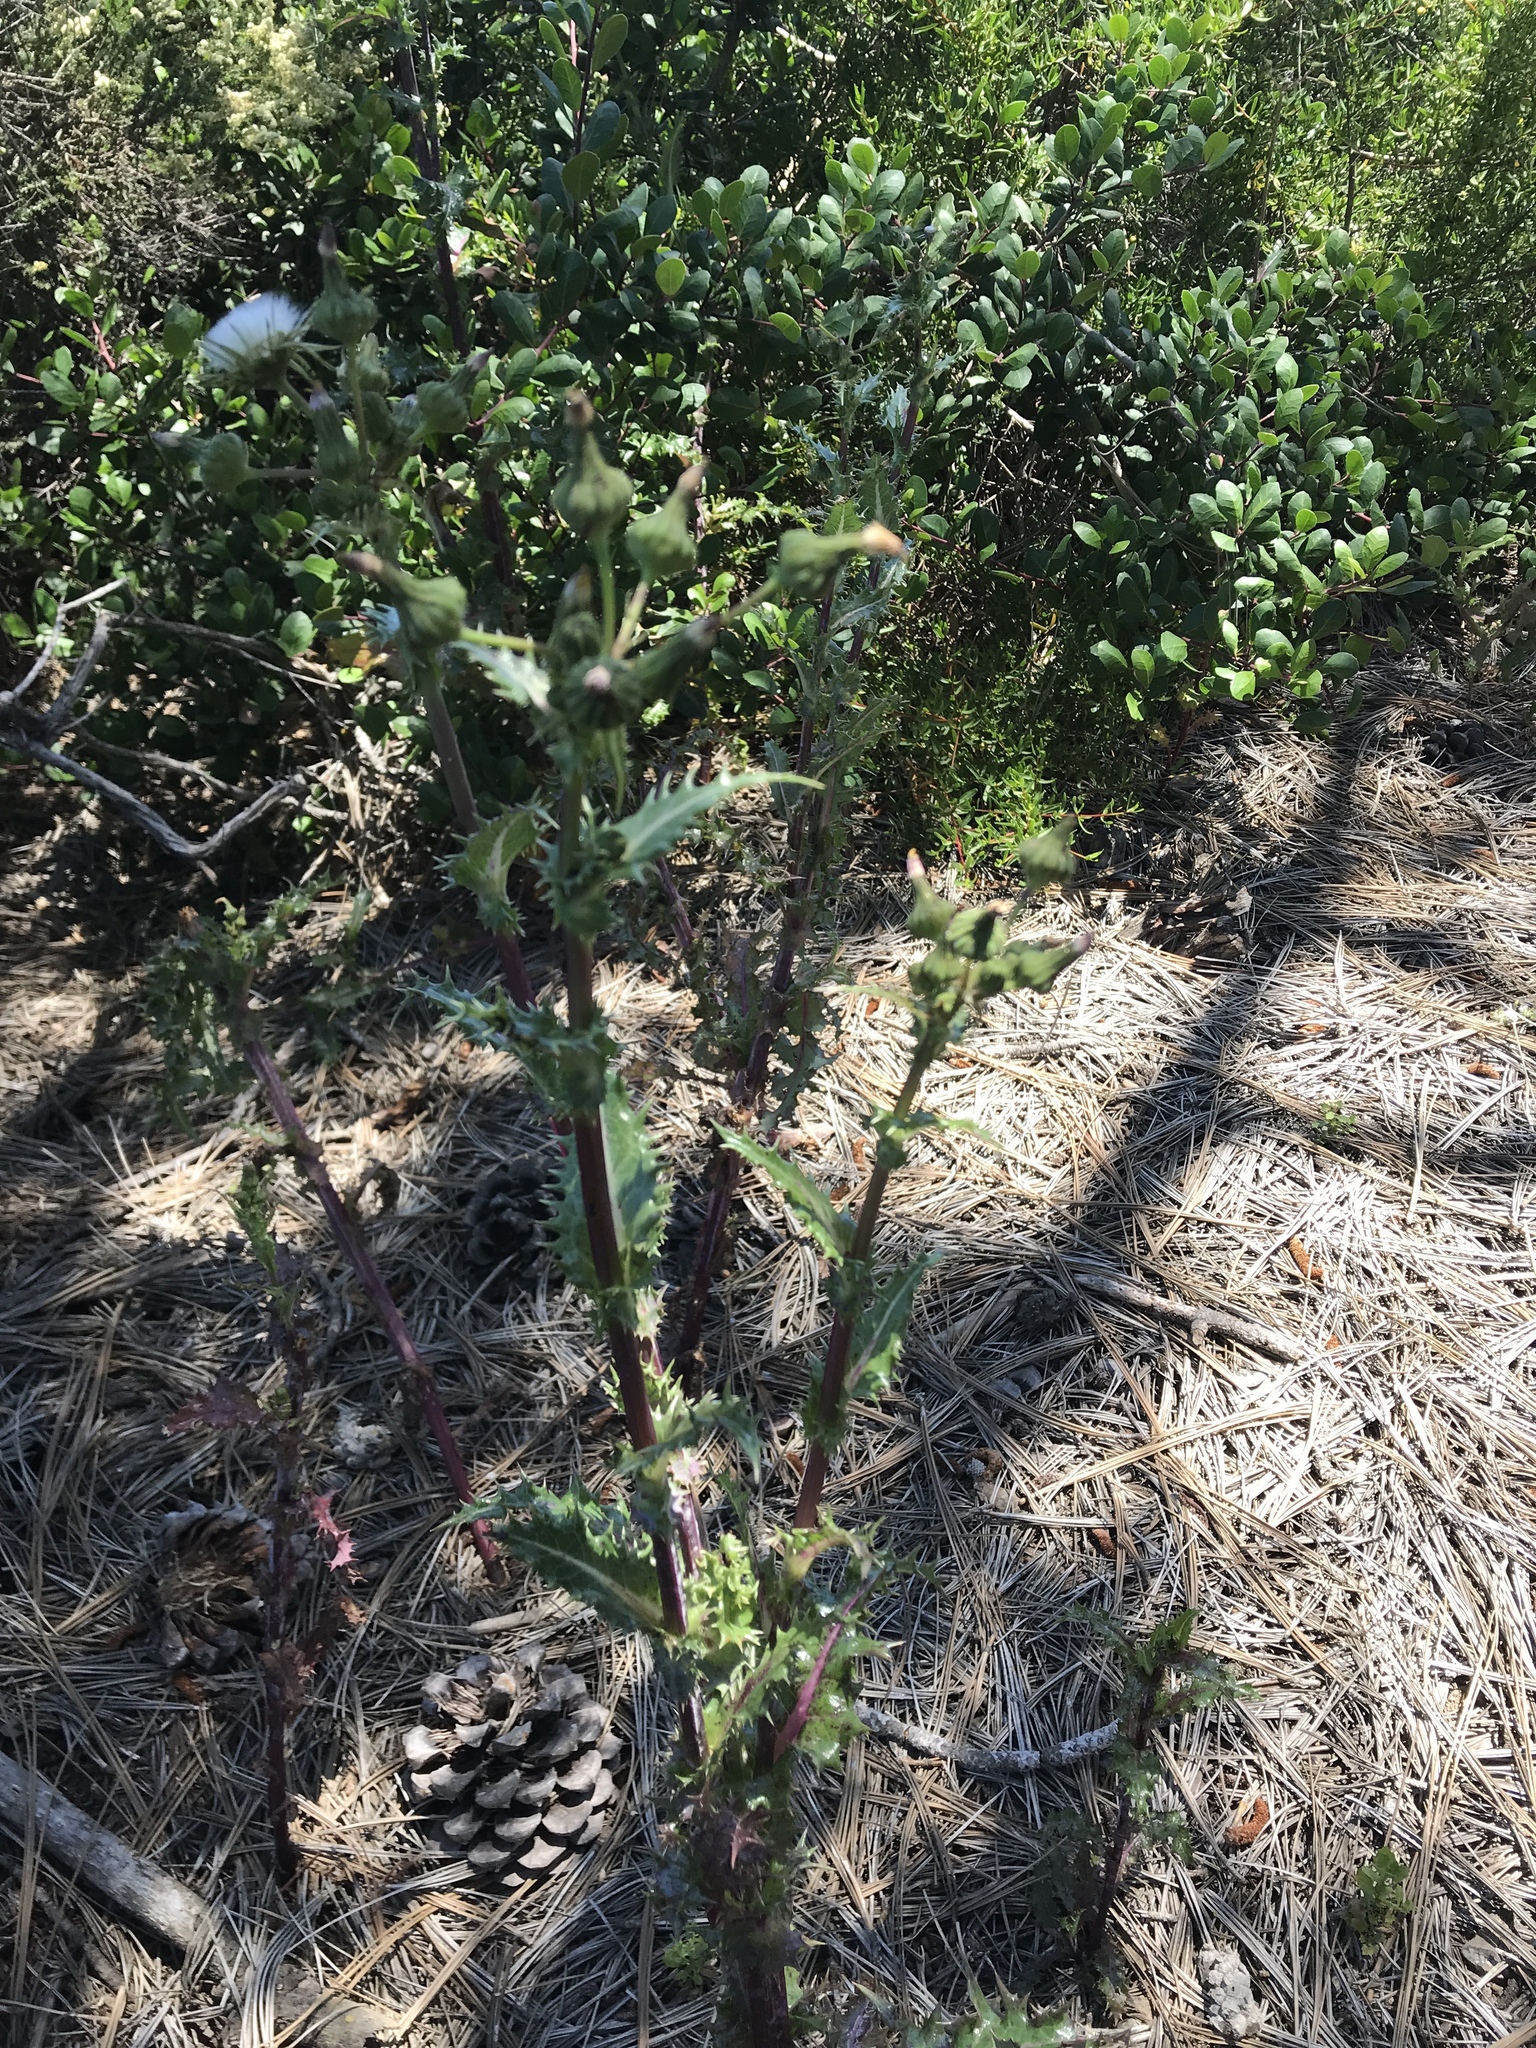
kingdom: Plantae
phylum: Tracheophyta
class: Magnoliopsida
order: Asterales
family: Asteraceae
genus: Sonchus
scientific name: Sonchus asper
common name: Prickly sow-thistle
